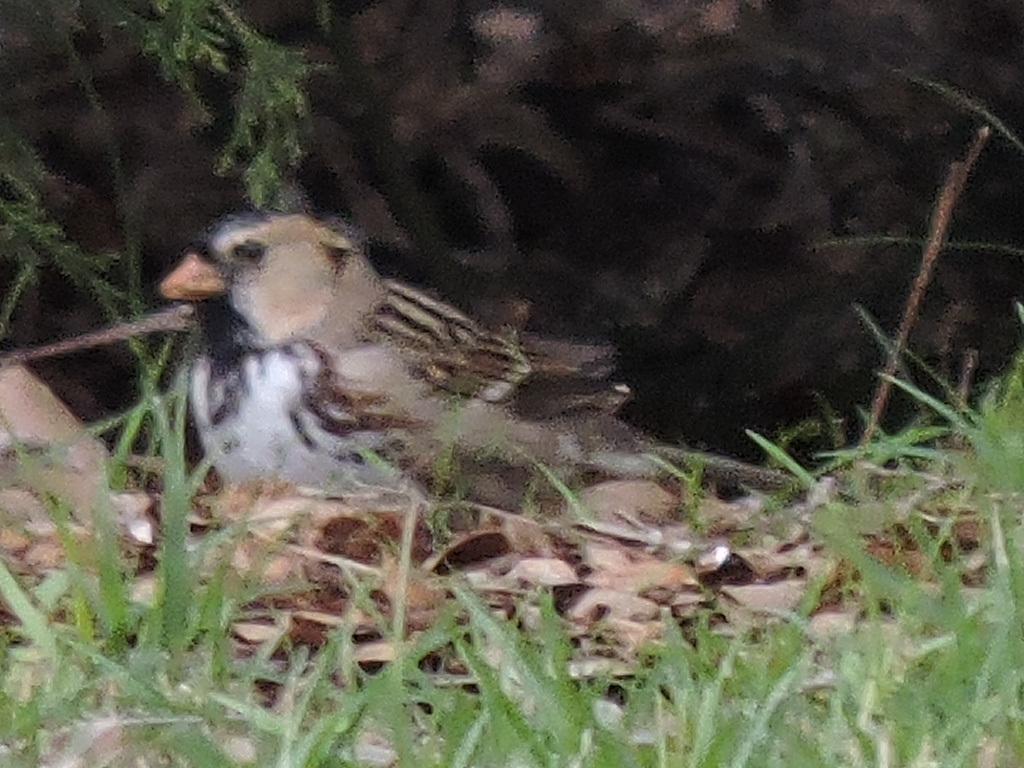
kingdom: Animalia
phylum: Chordata
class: Aves
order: Passeriformes
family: Passerellidae
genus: Zonotrichia
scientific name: Zonotrichia querula
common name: Harris's sparrow
